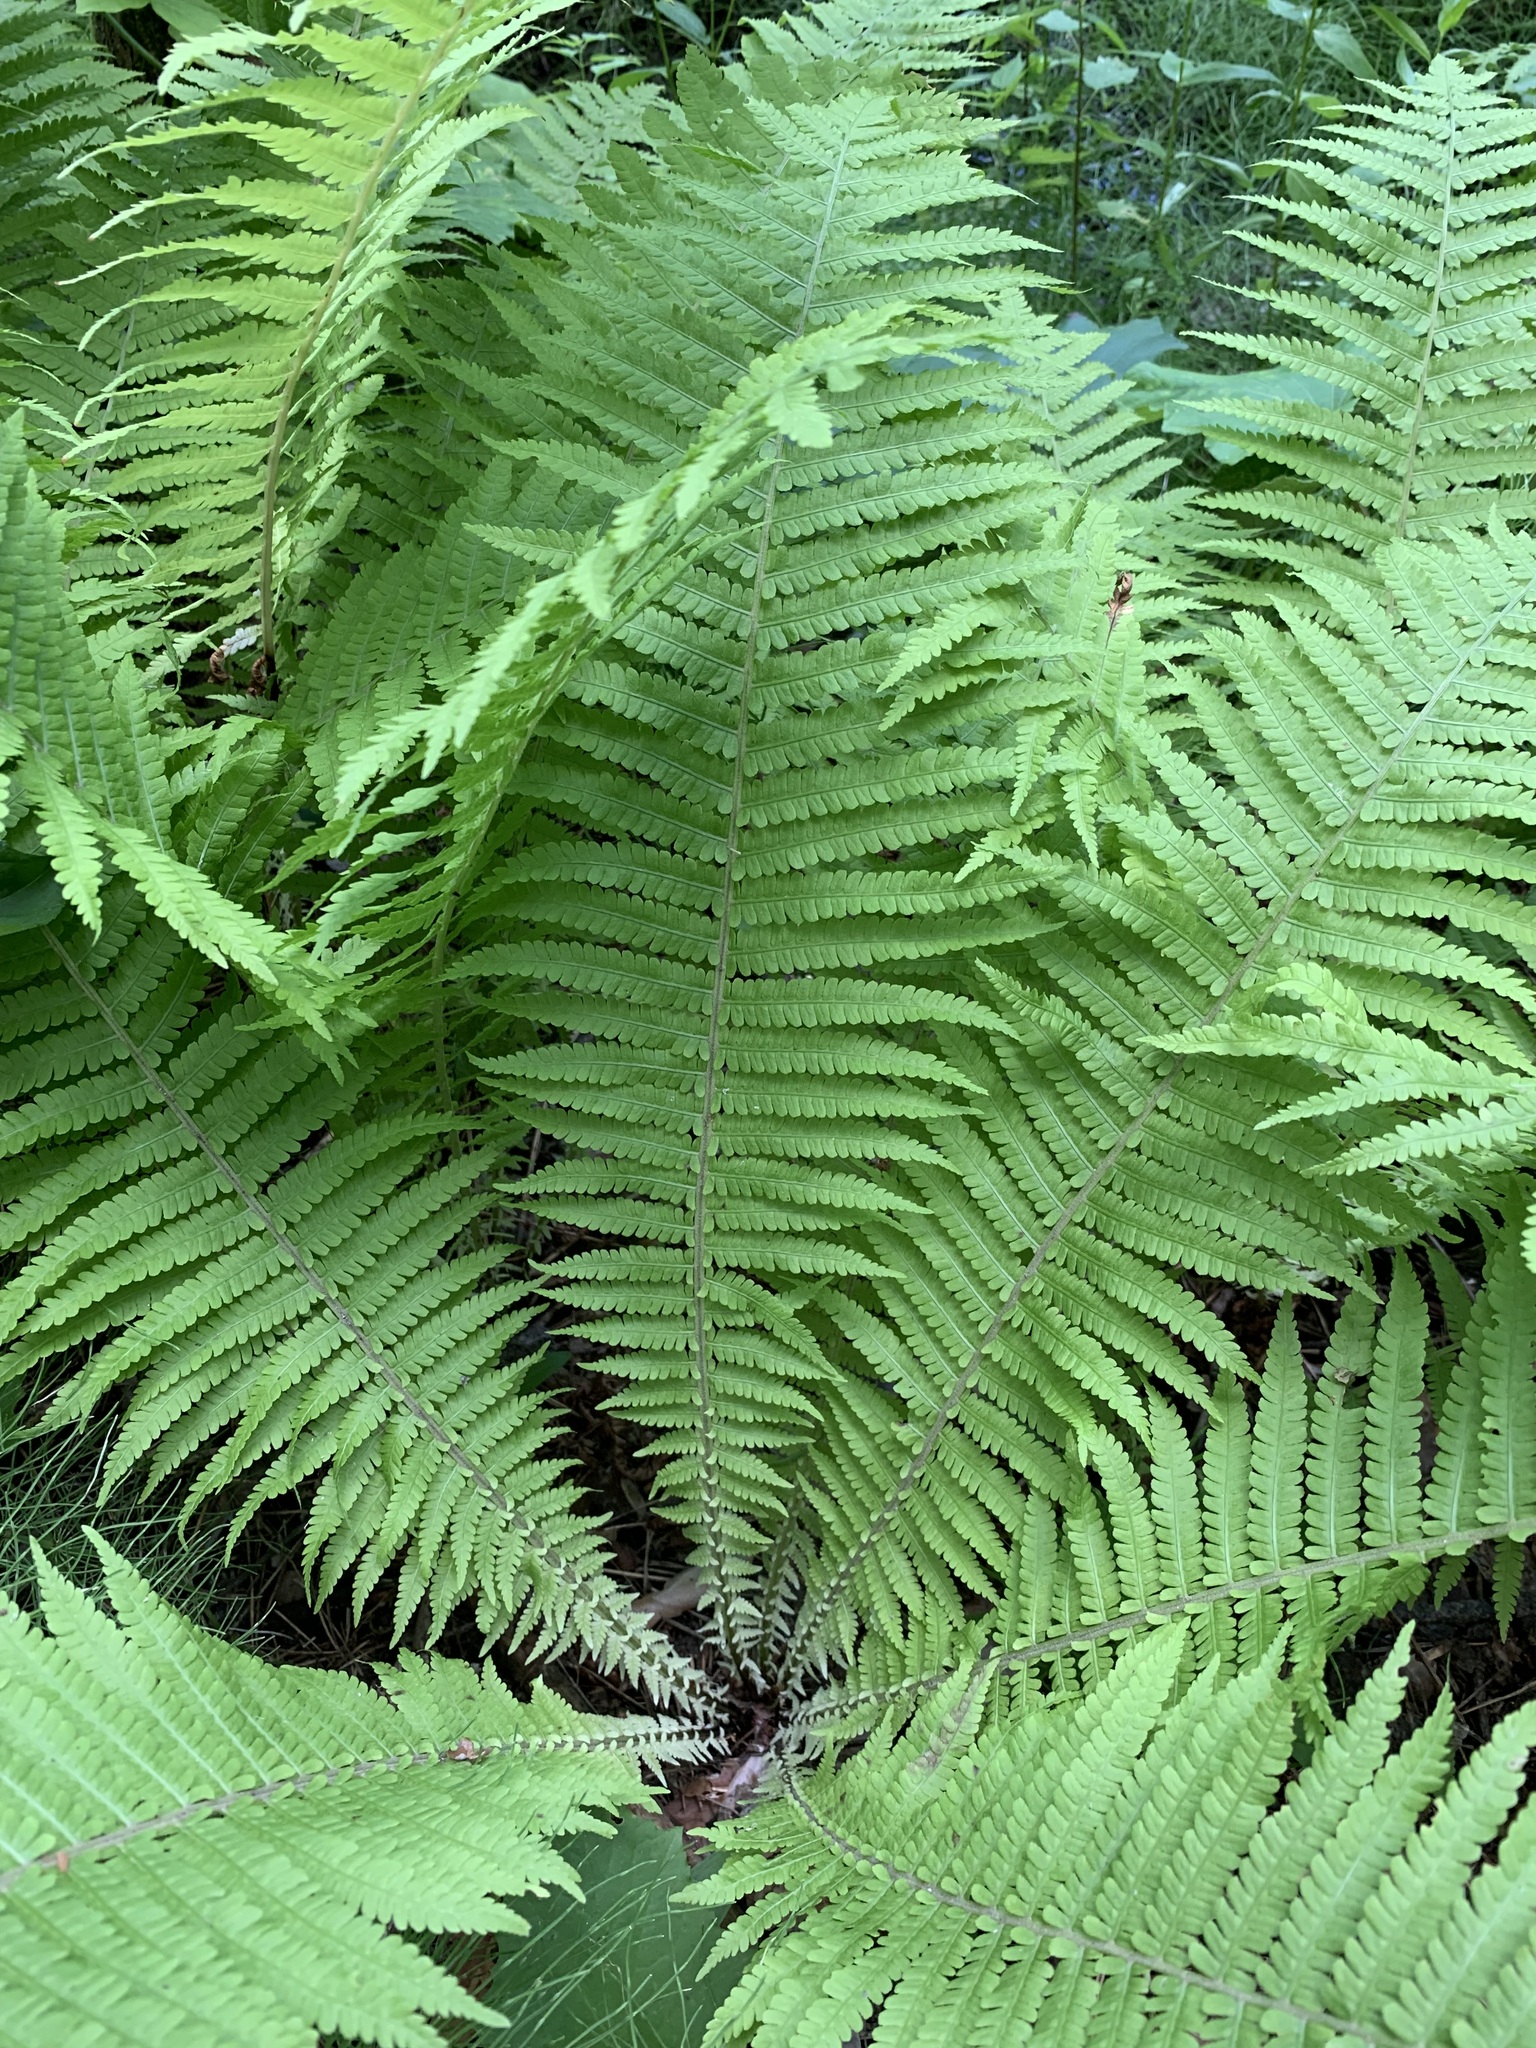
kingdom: Plantae
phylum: Tracheophyta
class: Polypodiopsida
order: Polypodiales
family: Onocleaceae
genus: Matteuccia
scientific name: Matteuccia struthiopteris
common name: Ostrich fern
